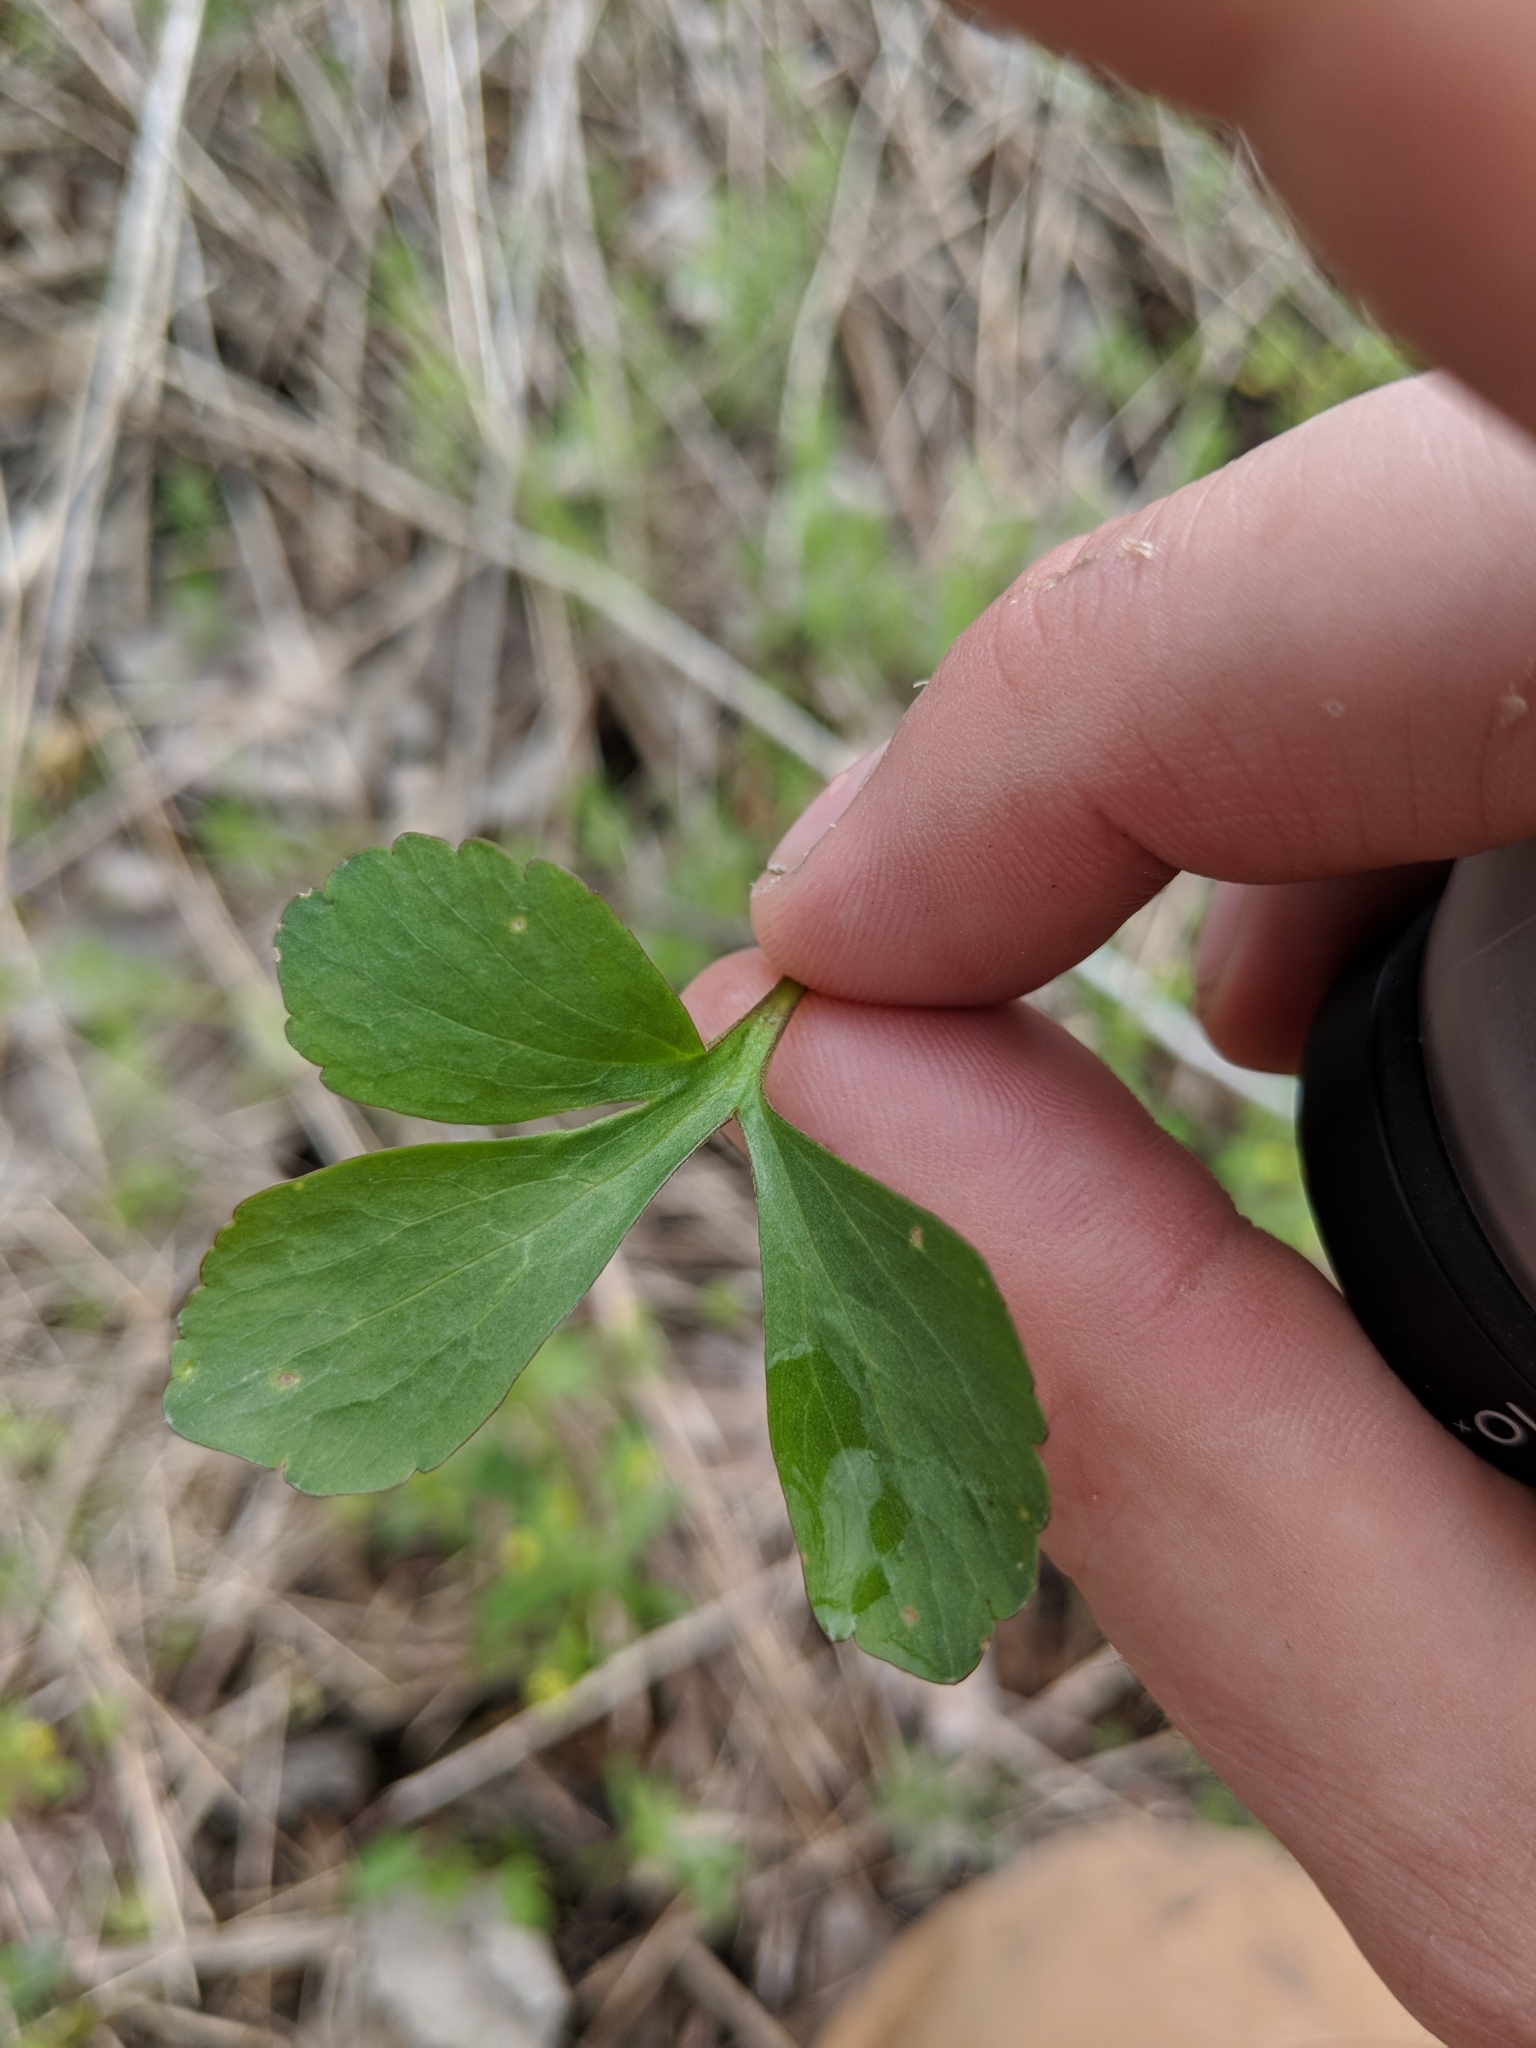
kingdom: Plantae
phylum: Tracheophyta
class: Magnoliopsida
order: Ranunculales
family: Ranunculaceae
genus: Ranunculus
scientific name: Ranunculus abortivus
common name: Early wood buttercup
